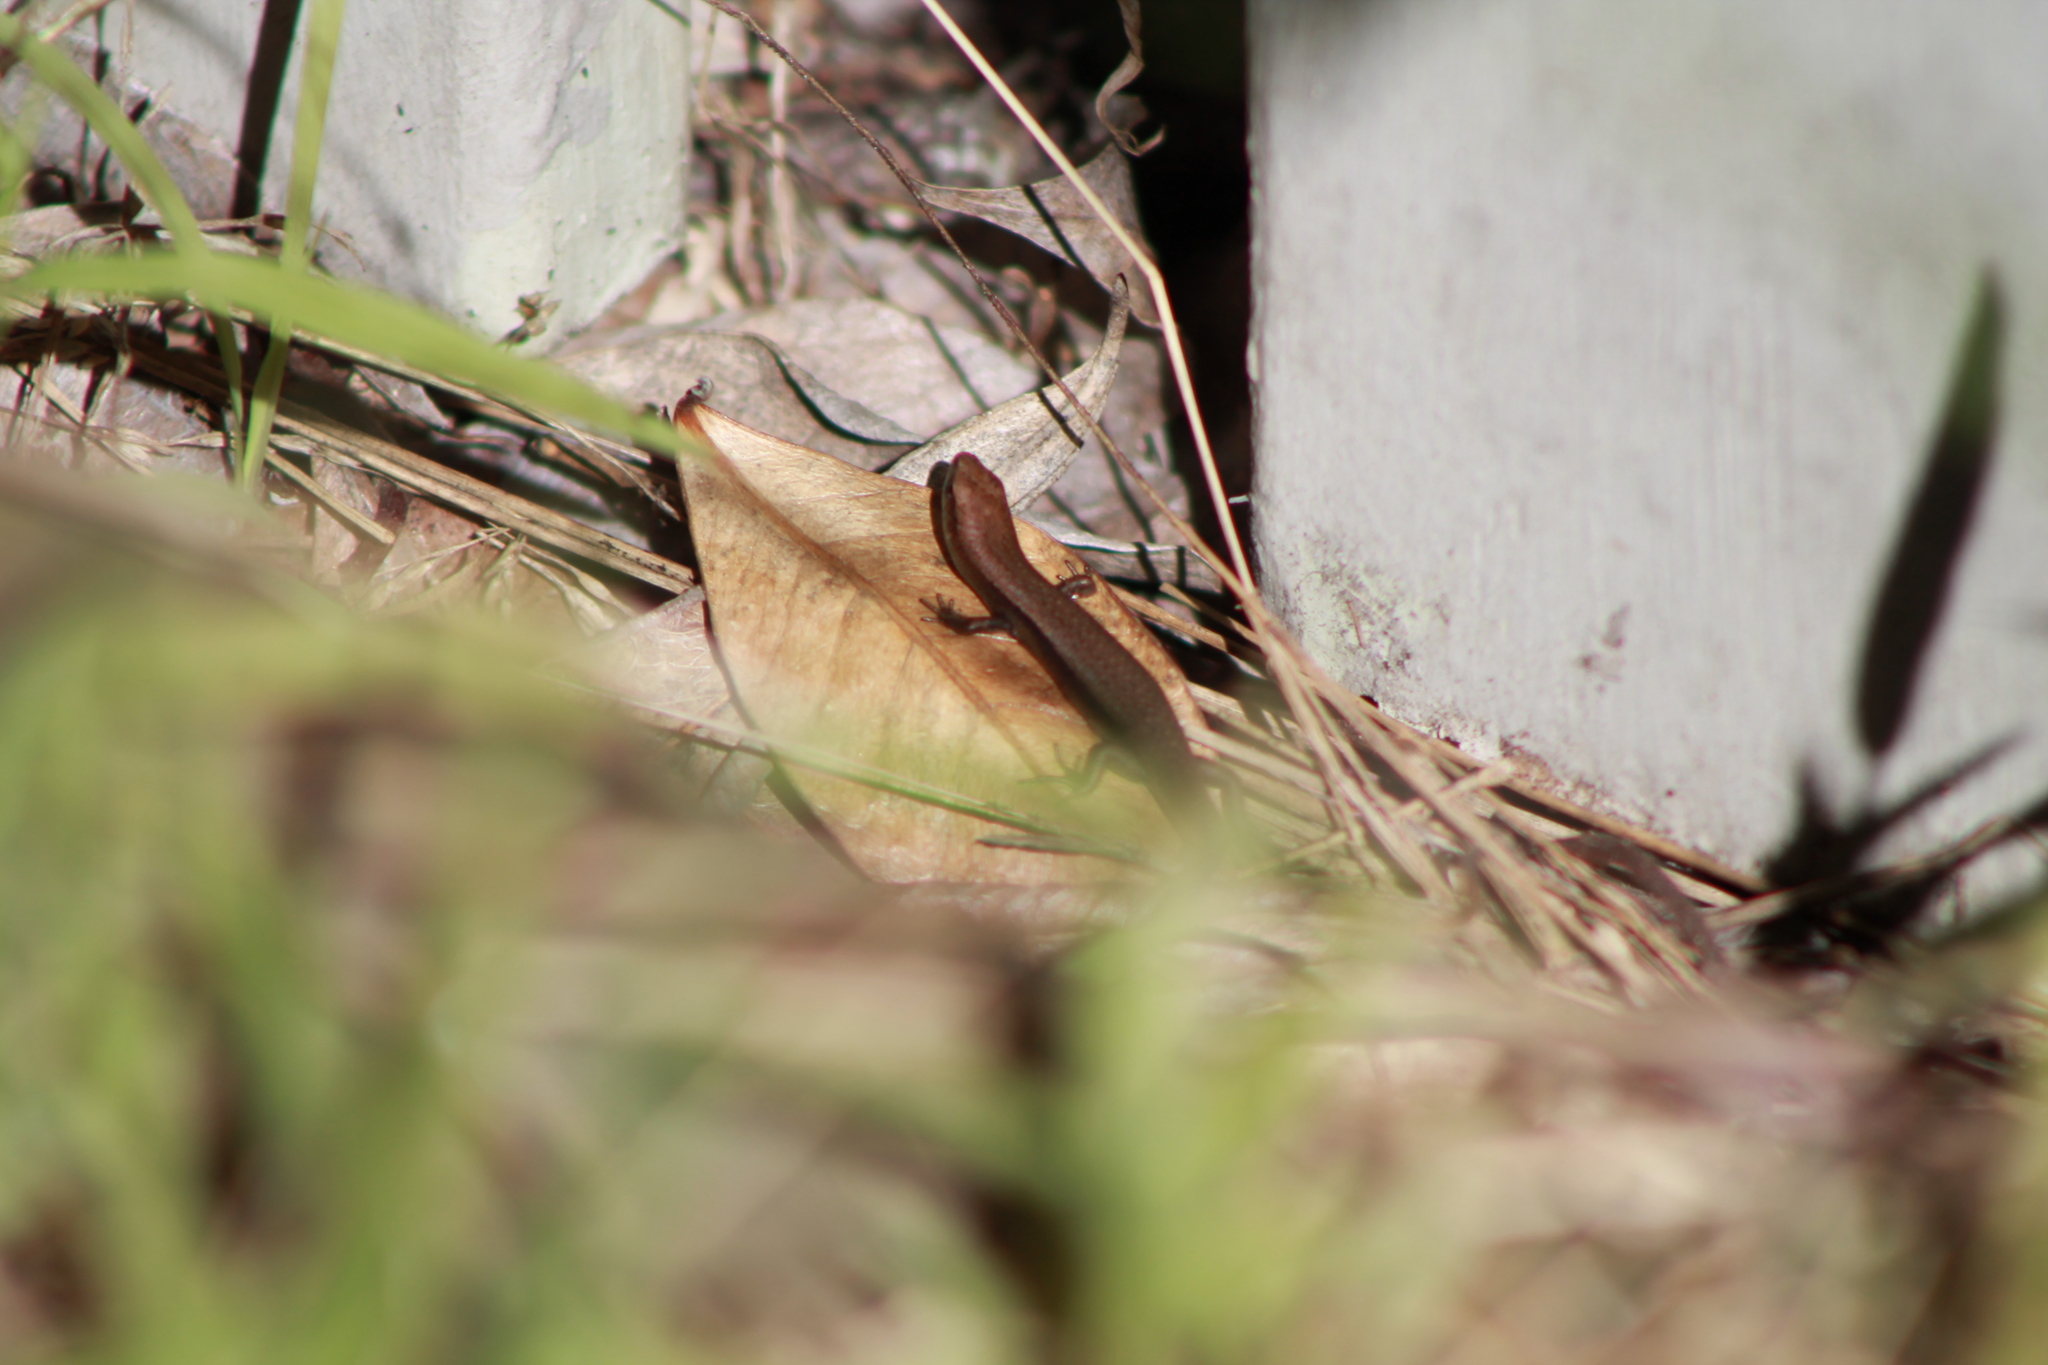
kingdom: Animalia
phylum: Chordata
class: Squamata
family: Scincidae
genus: Lampropholis
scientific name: Lampropholis delicata
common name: Plague skink
